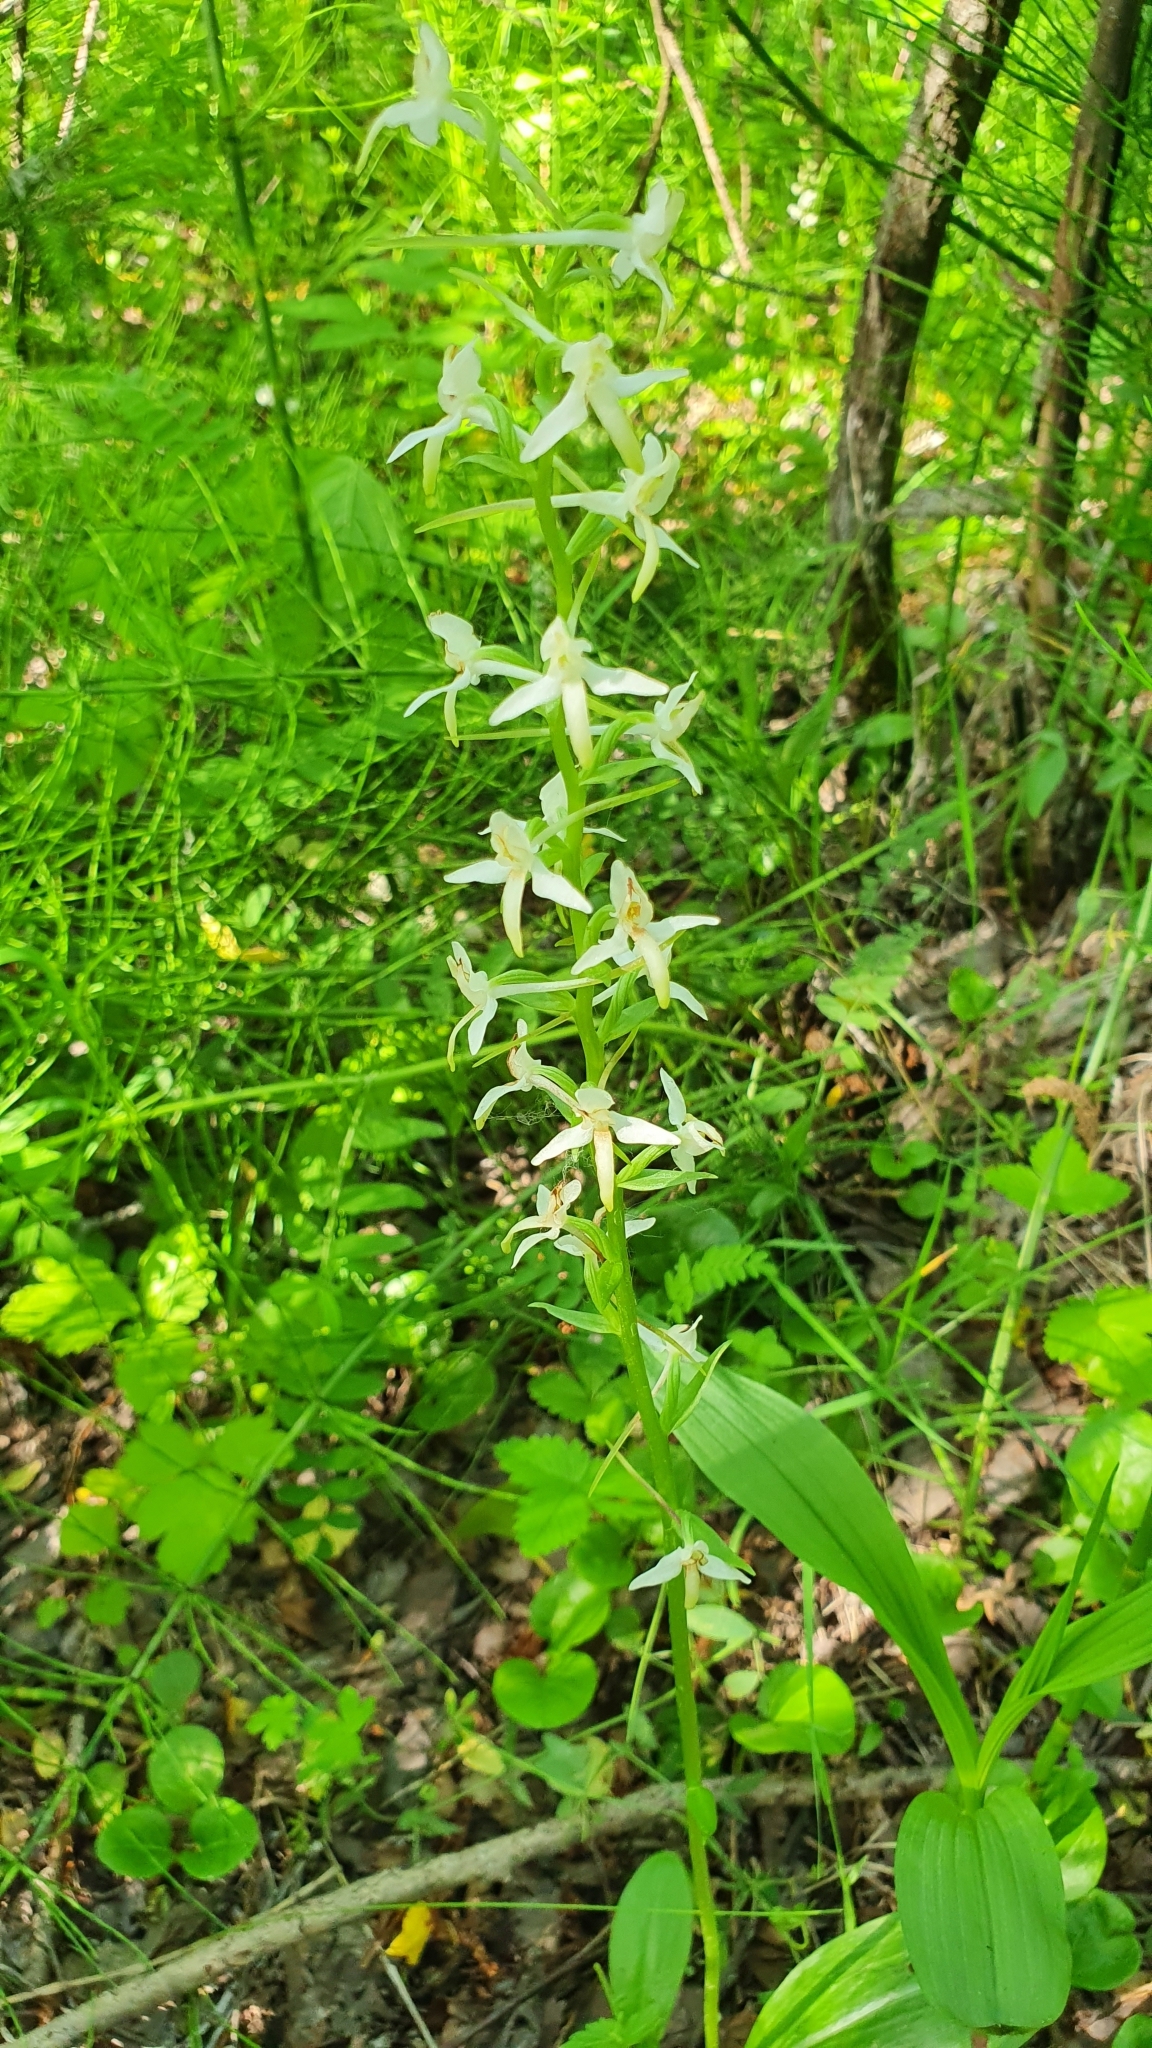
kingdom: Plantae
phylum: Tracheophyta
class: Liliopsida
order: Asparagales
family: Orchidaceae
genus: Platanthera
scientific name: Platanthera bifolia
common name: Lesser butterfly-orchid
